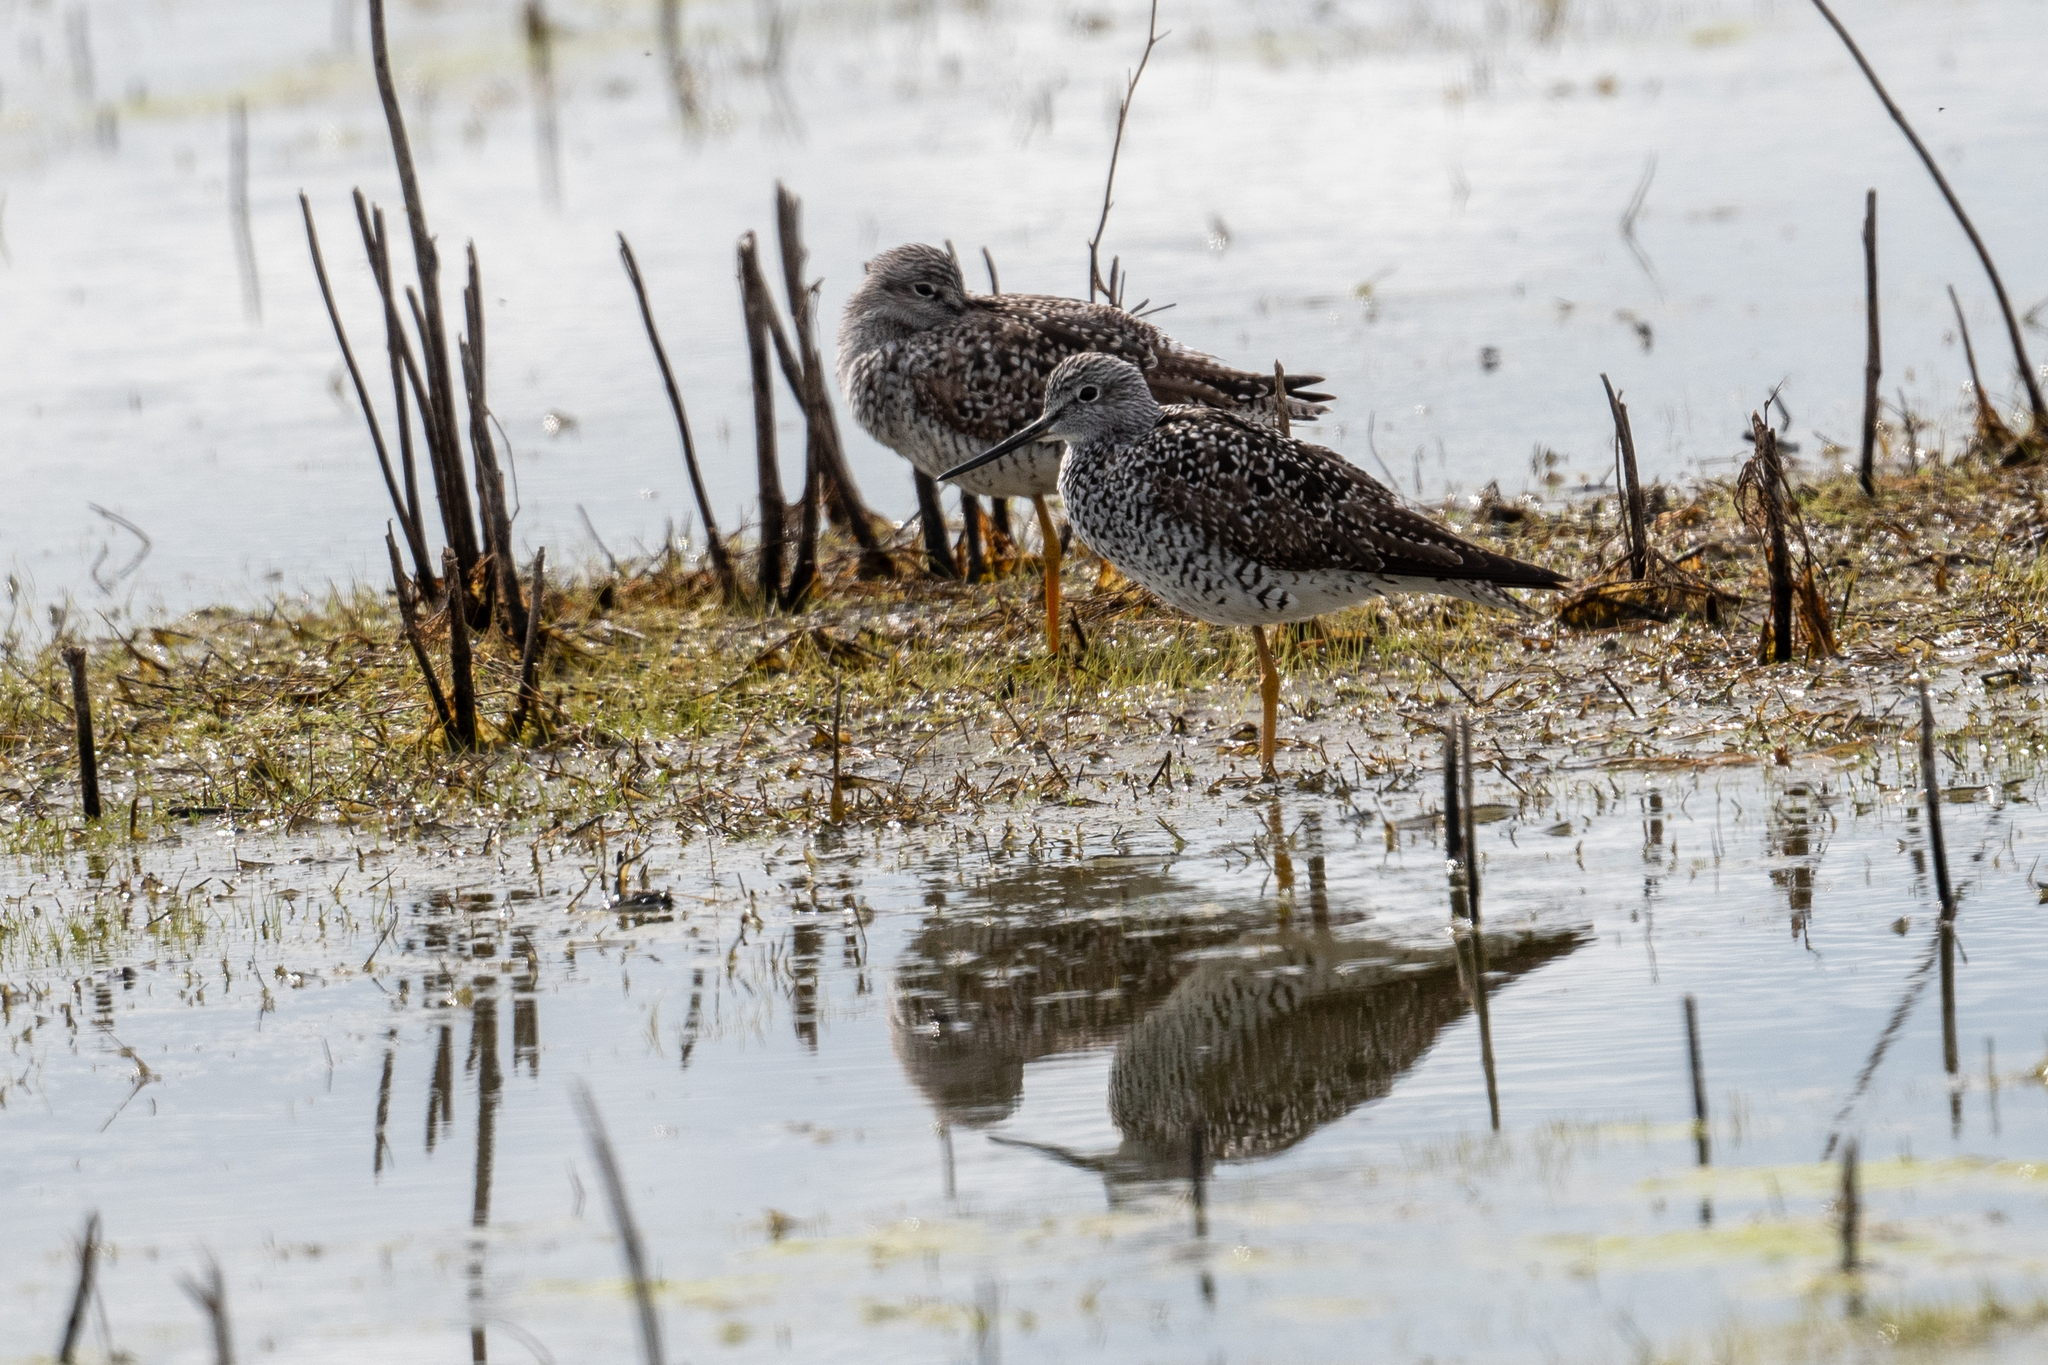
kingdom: Animalia
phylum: Chordata
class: Aves
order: Charadriiformes
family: Scolopacidae
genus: Tringa
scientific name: Tringa melanoleuca
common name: Greater yellowlegs
